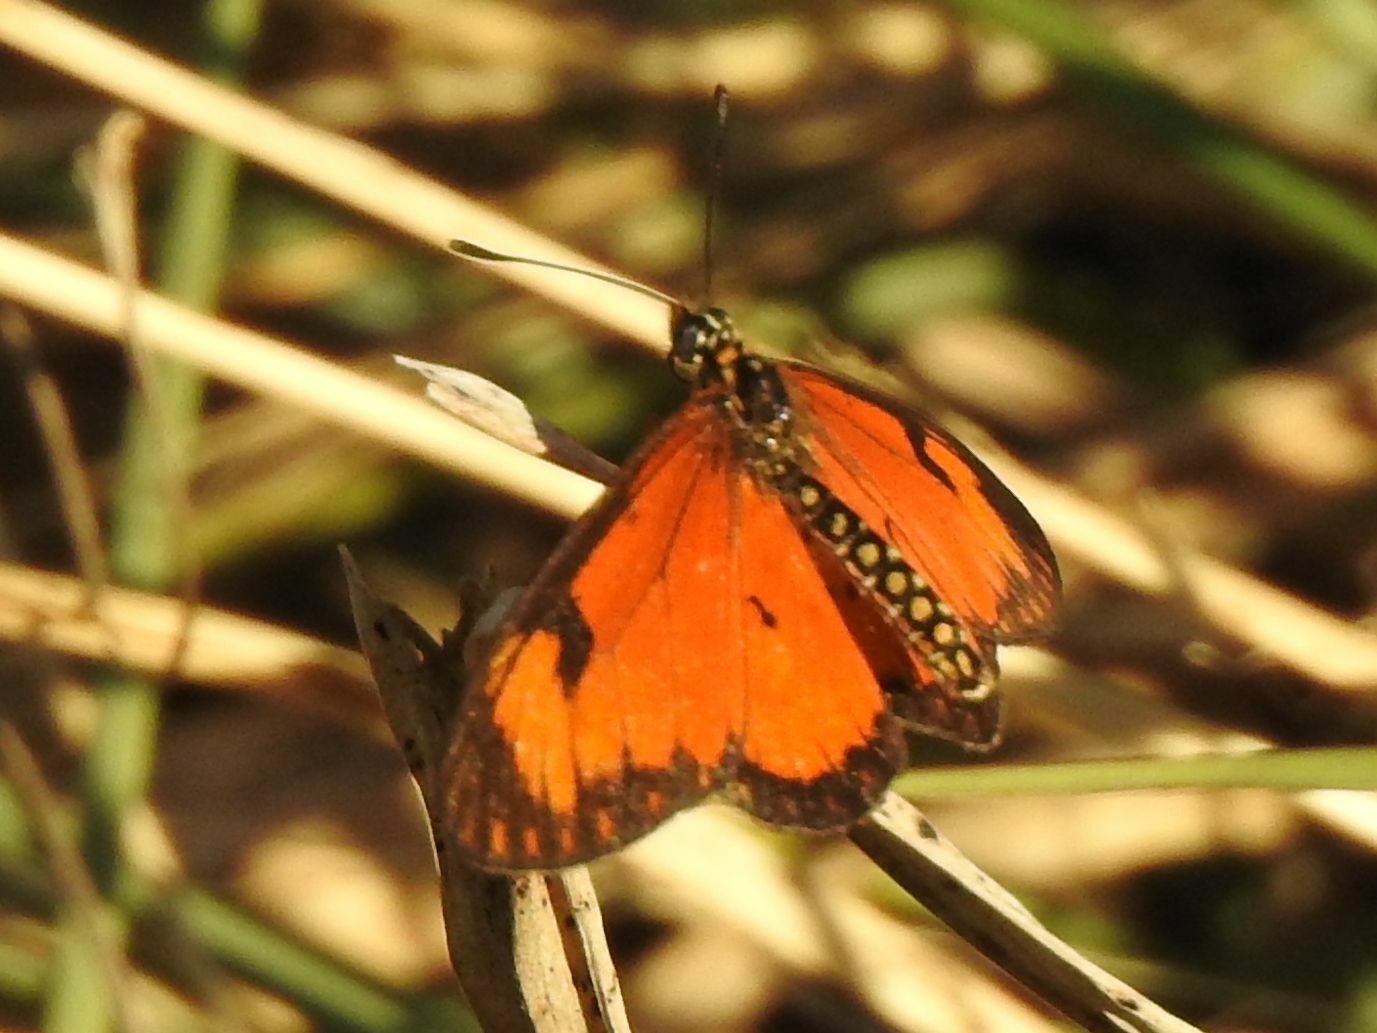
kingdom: Animalia
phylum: Arthropoda
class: Insecta
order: Lepidoptera
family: Nymphalidae
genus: Acraea
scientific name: Acraea Telchinia serena
